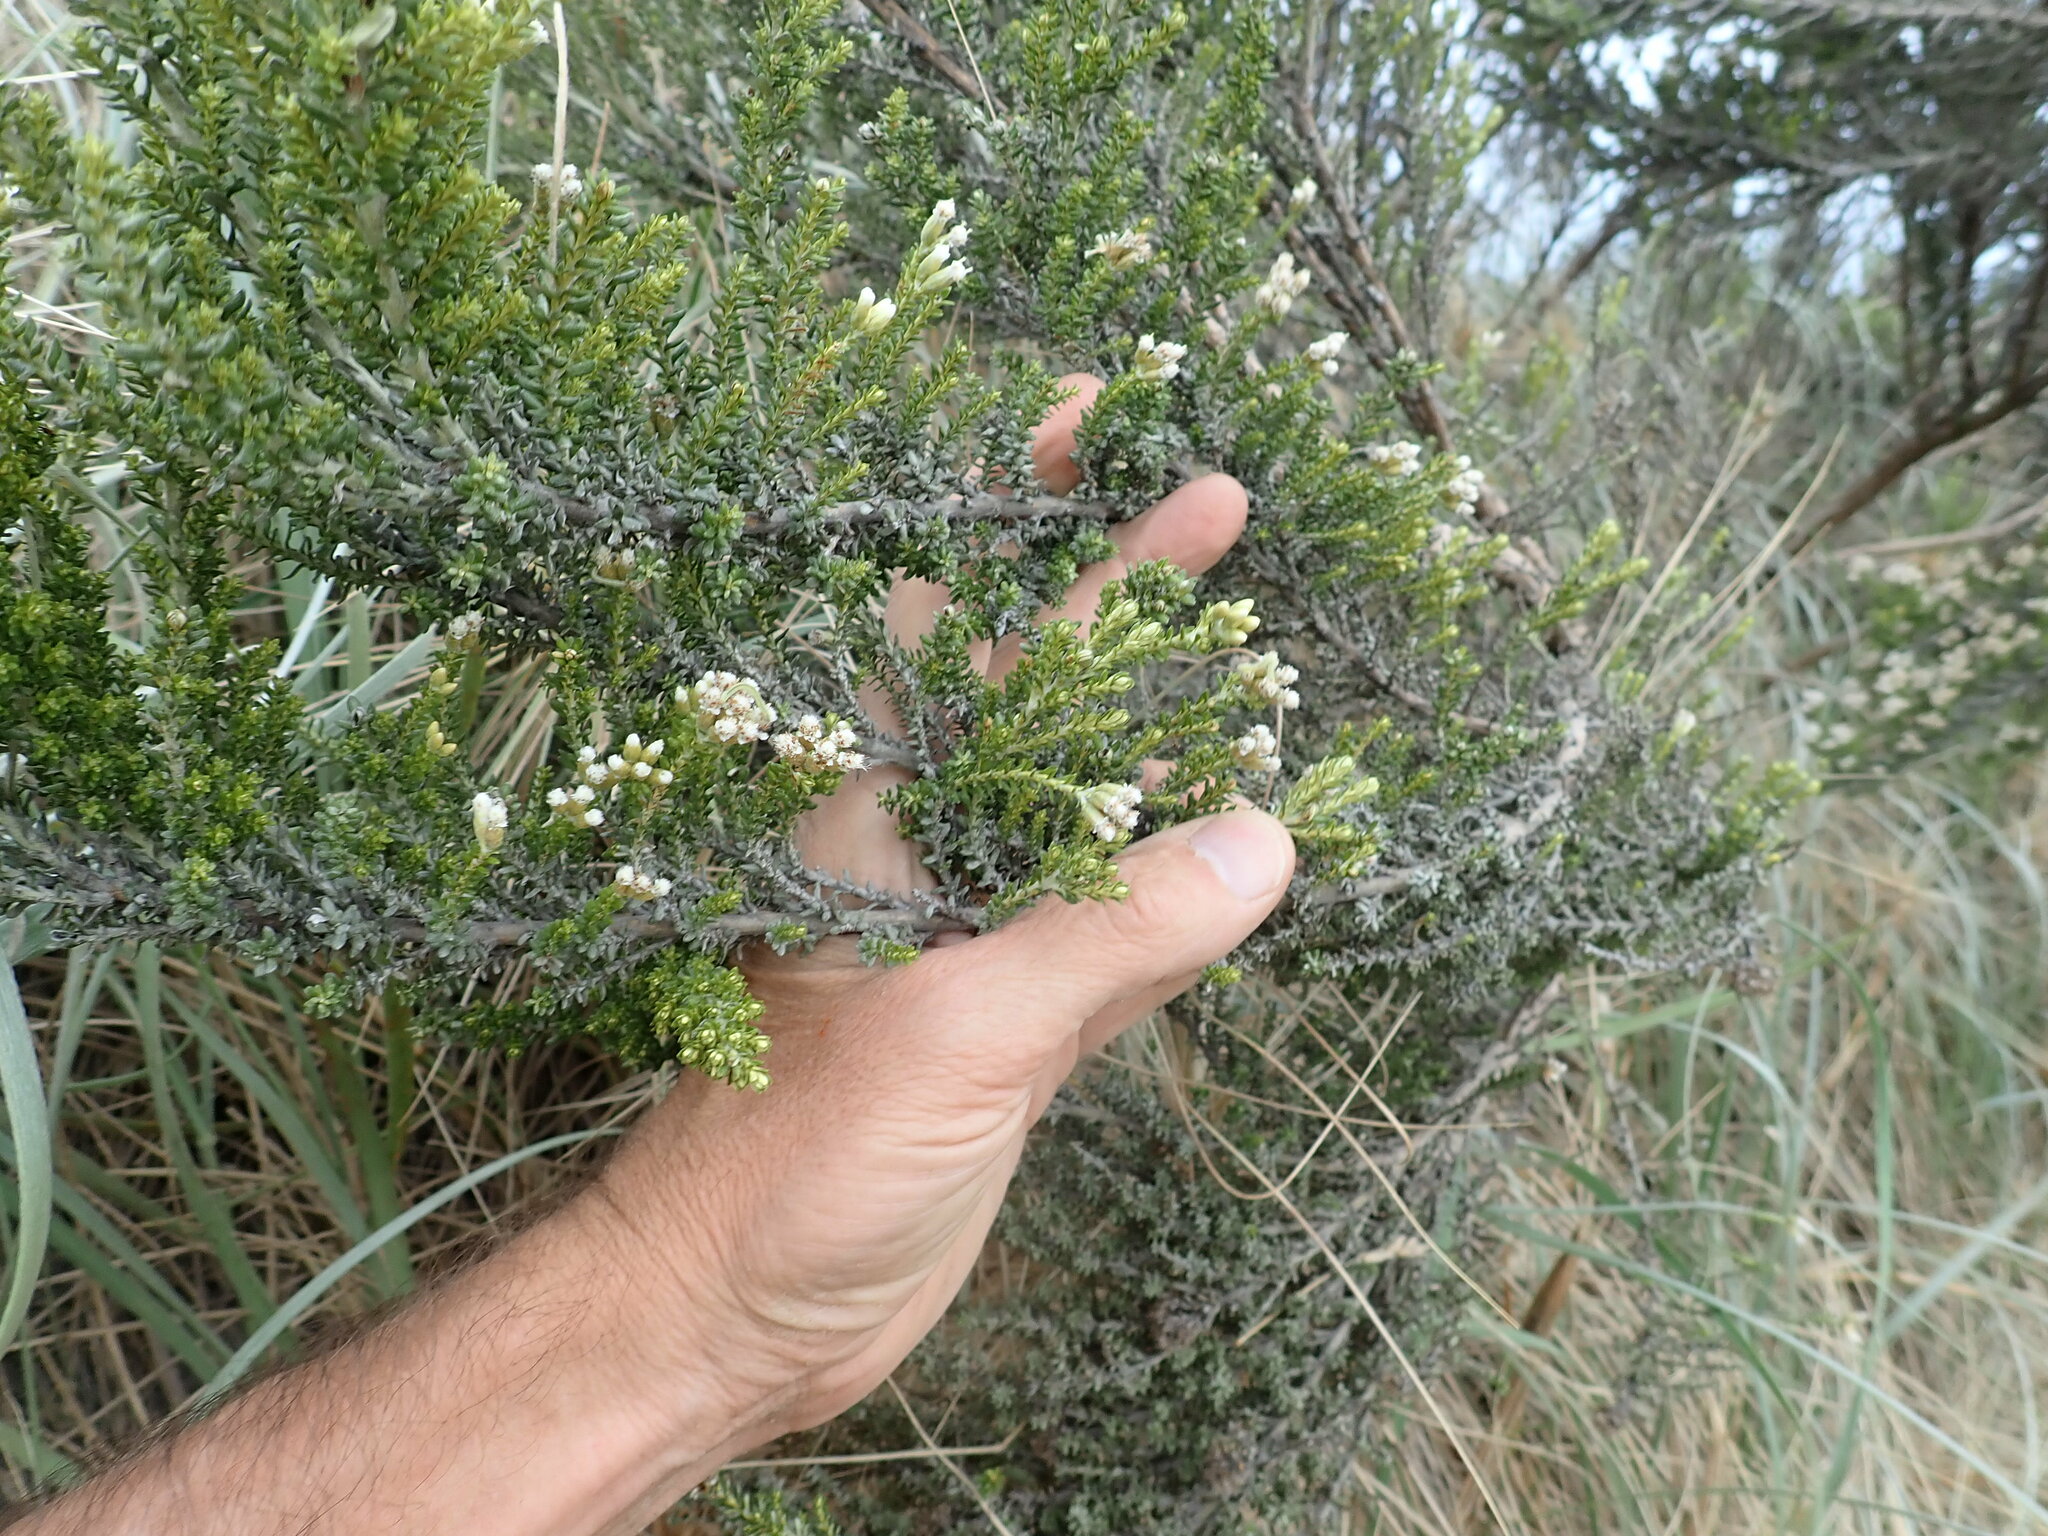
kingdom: Plantae
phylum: Tracheophyta
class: Magnoliopsida
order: Asterales
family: Asteraceae
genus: Ozothamnus
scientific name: Ozothamnus leptophyllus
